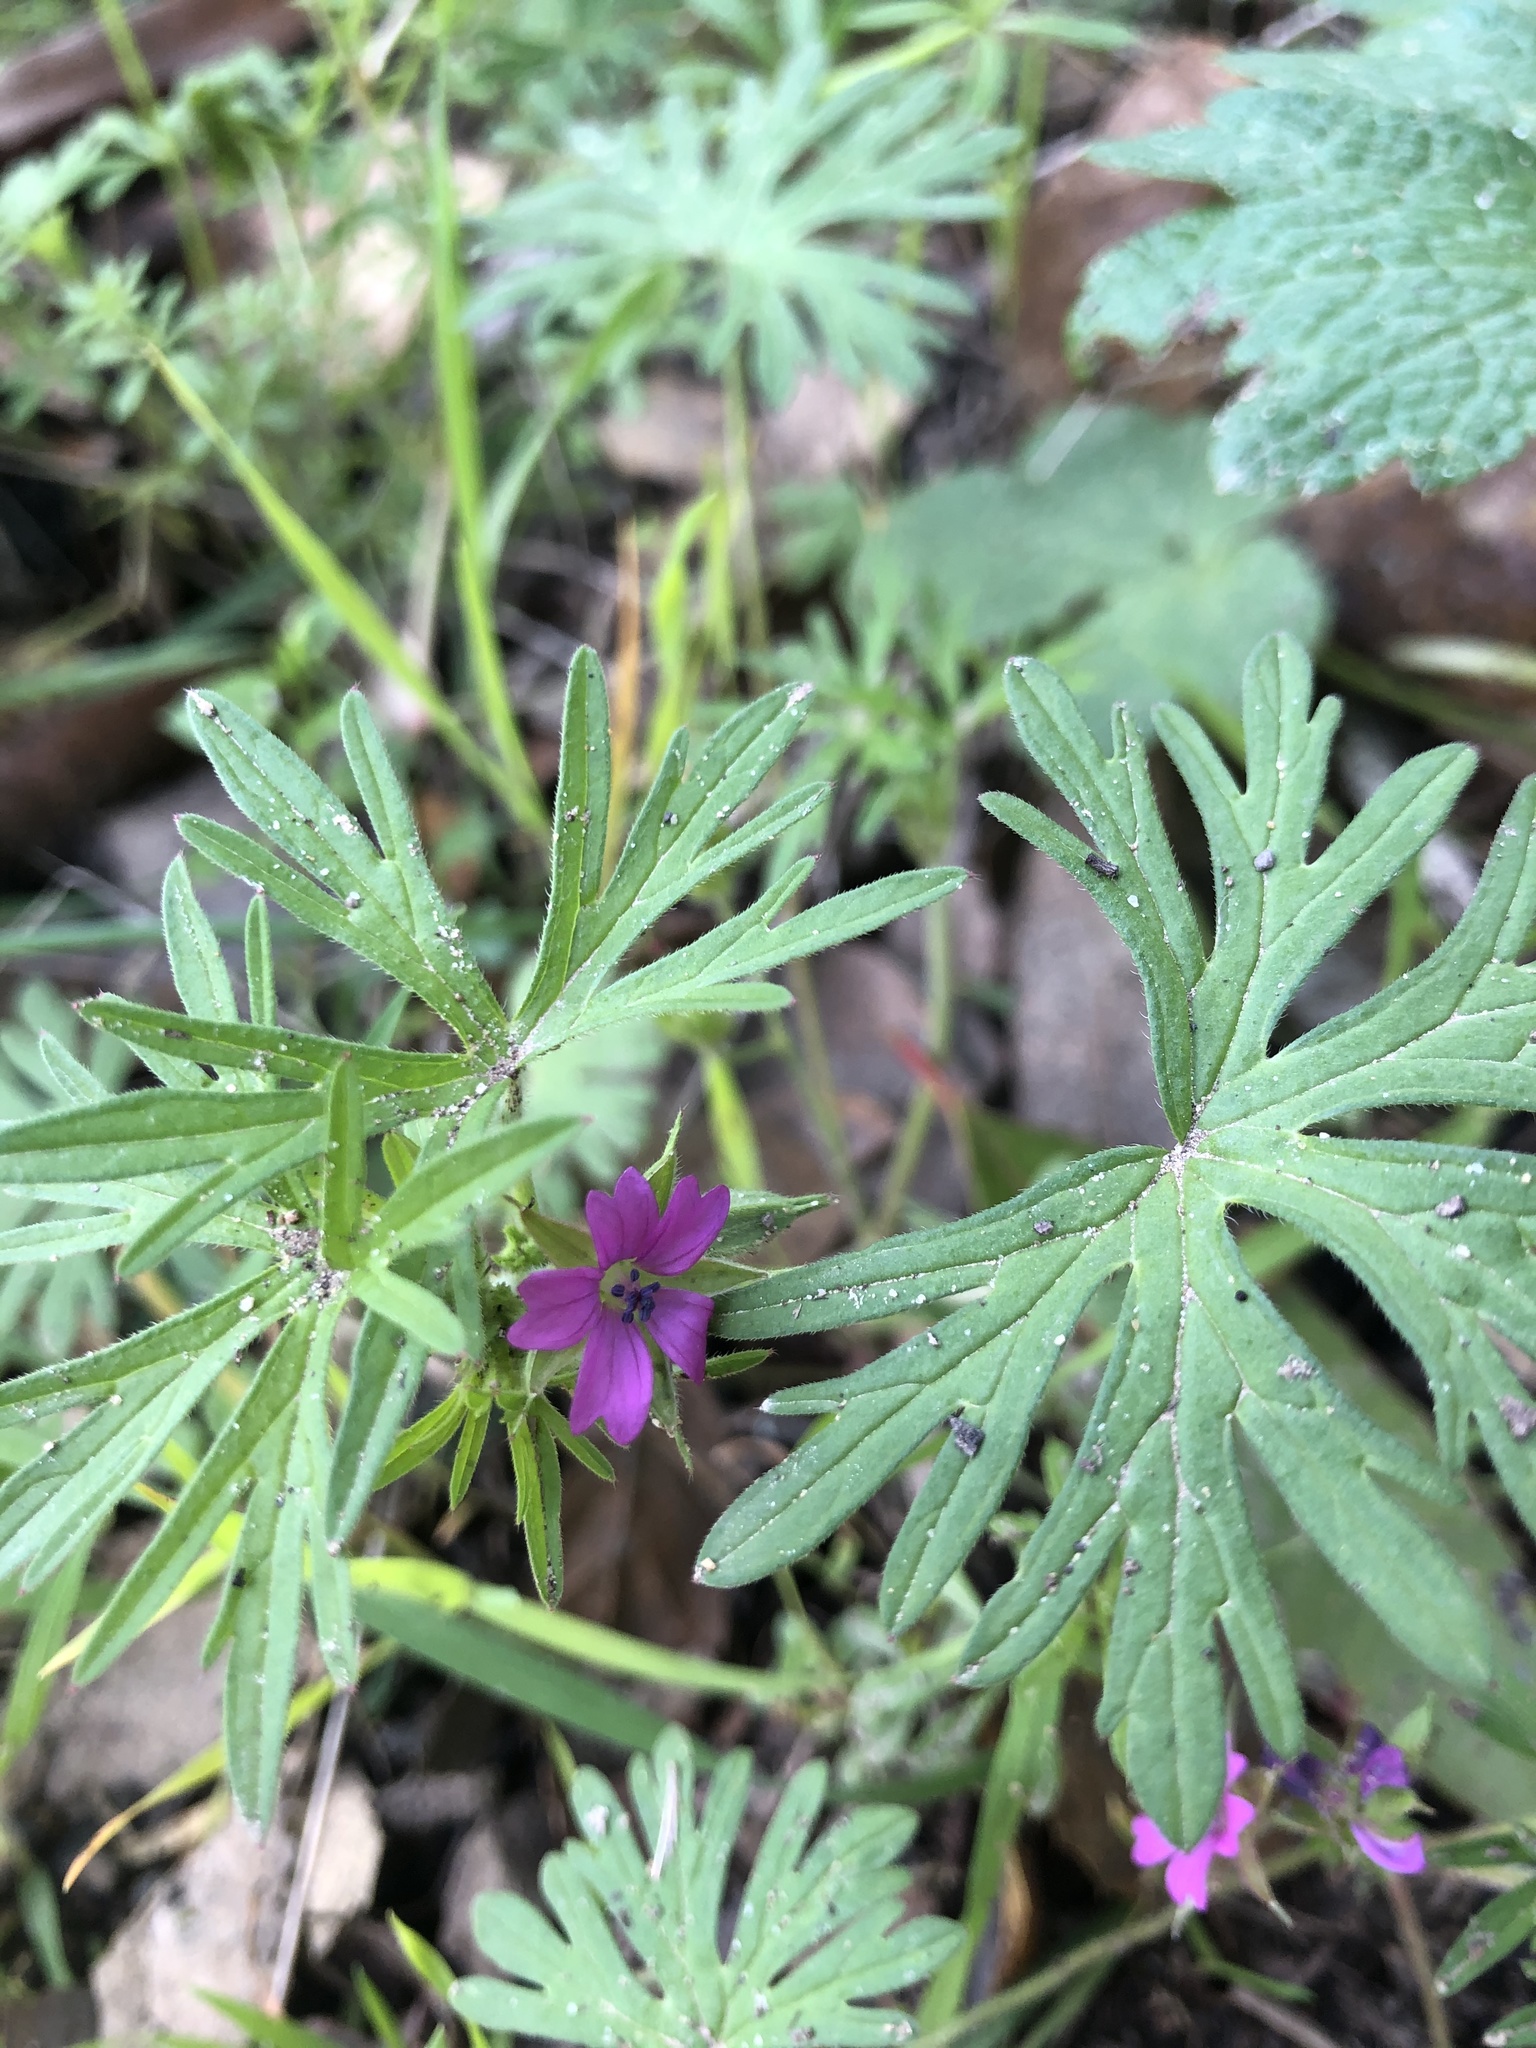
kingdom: Plantae
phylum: Tracheophyta
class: Magnoliopsida
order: Geraniales
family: Geraniaceae
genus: Geranium
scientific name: Geranium dissectum
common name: Cut-leaved crane's-bill
